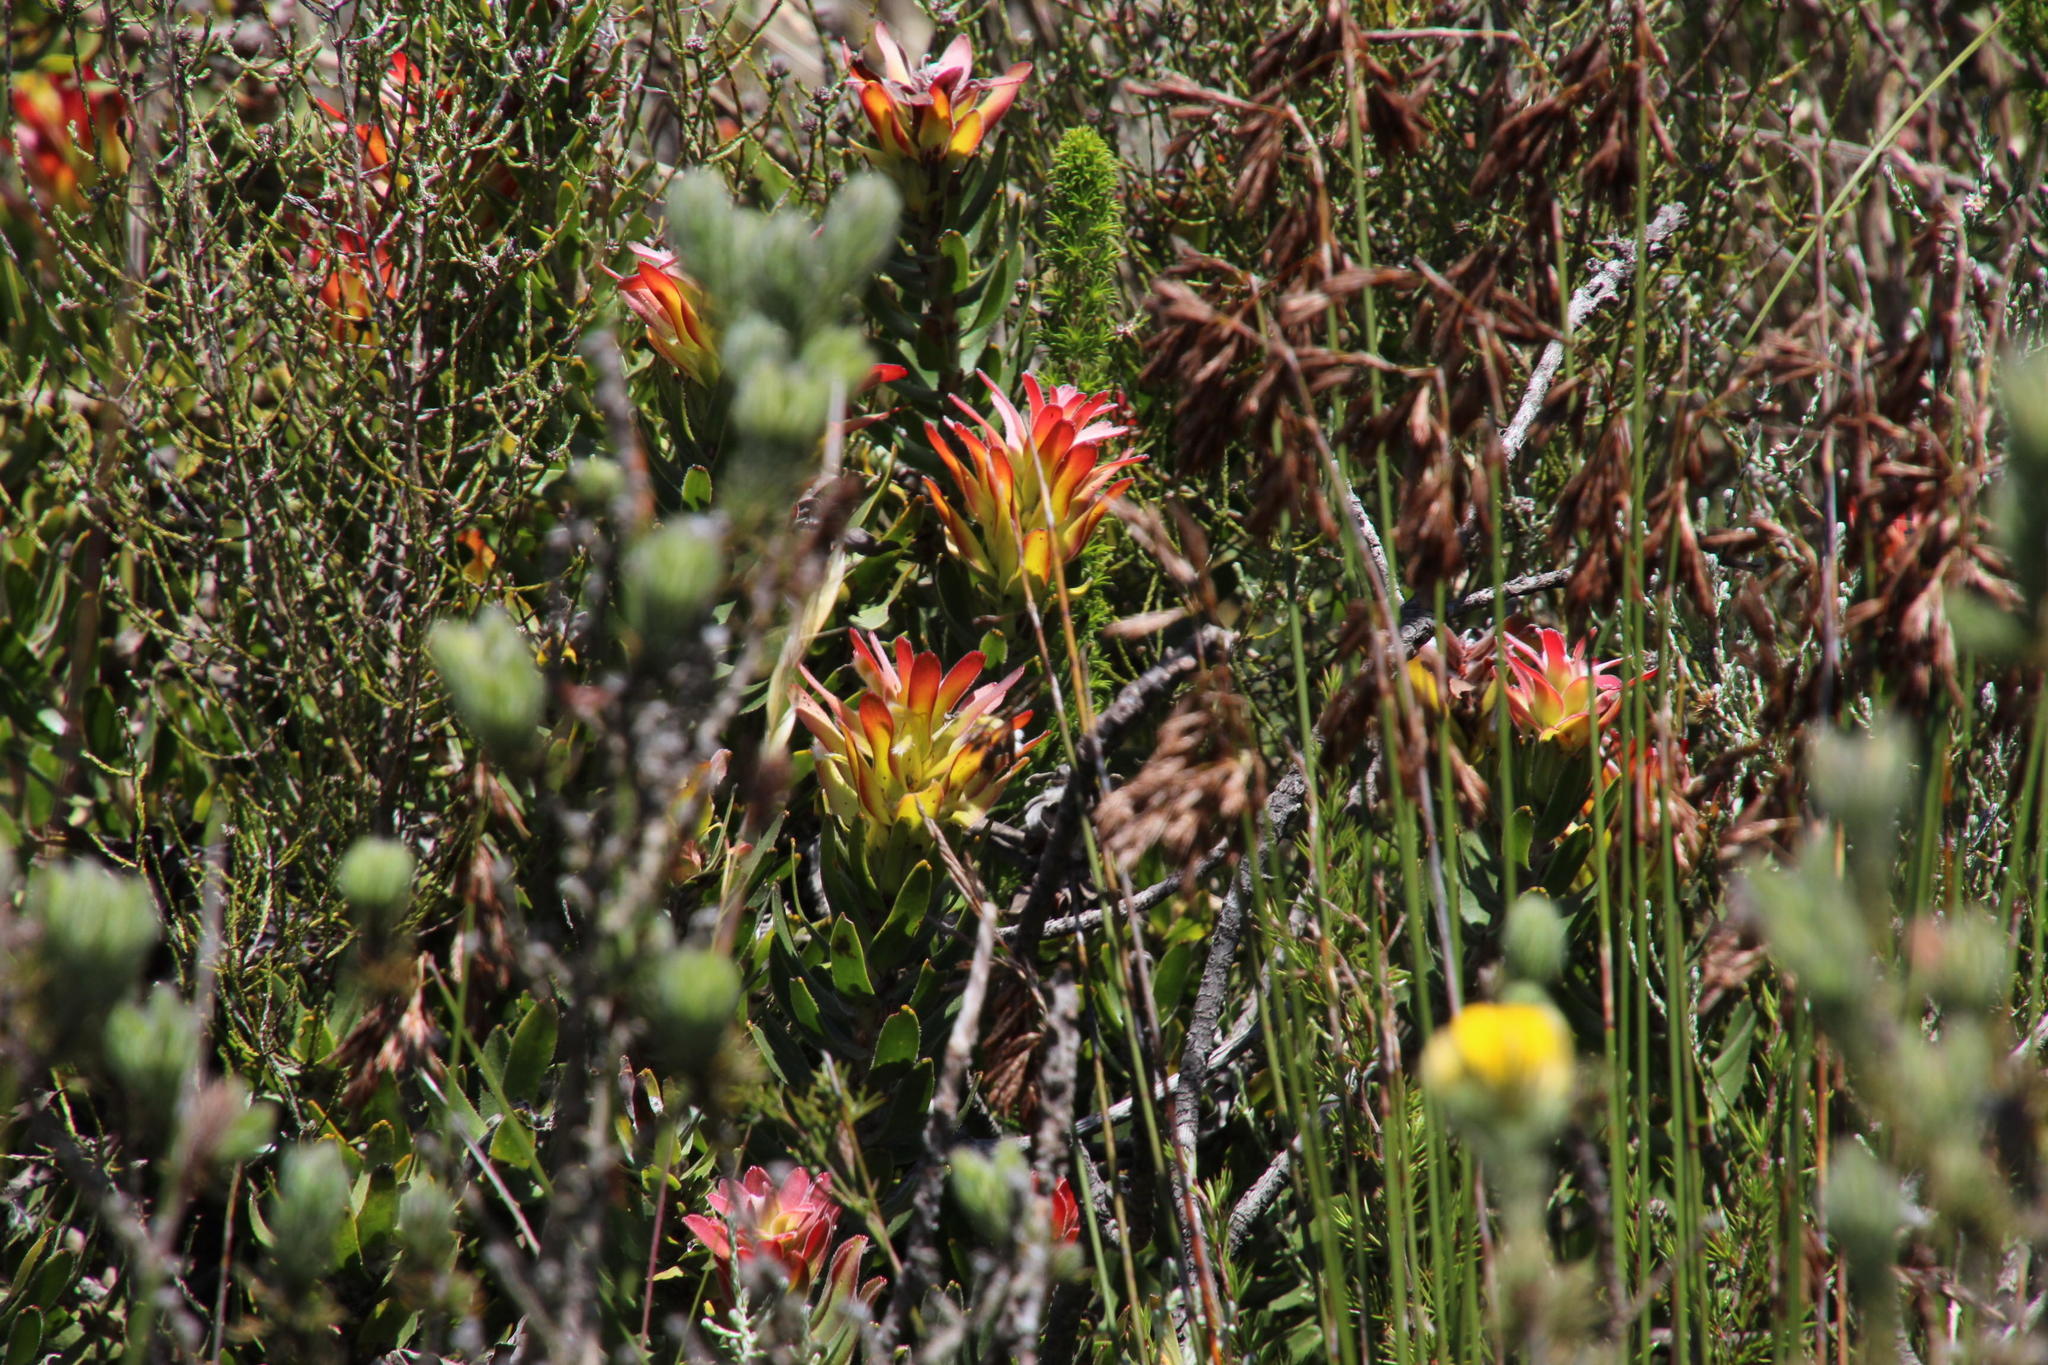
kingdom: Plantae
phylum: Tracheophyta
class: Magnoliopsida
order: Proteales
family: Proteaceae
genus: Mimetes
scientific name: Mimetes cucullatus
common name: Common pagoda
